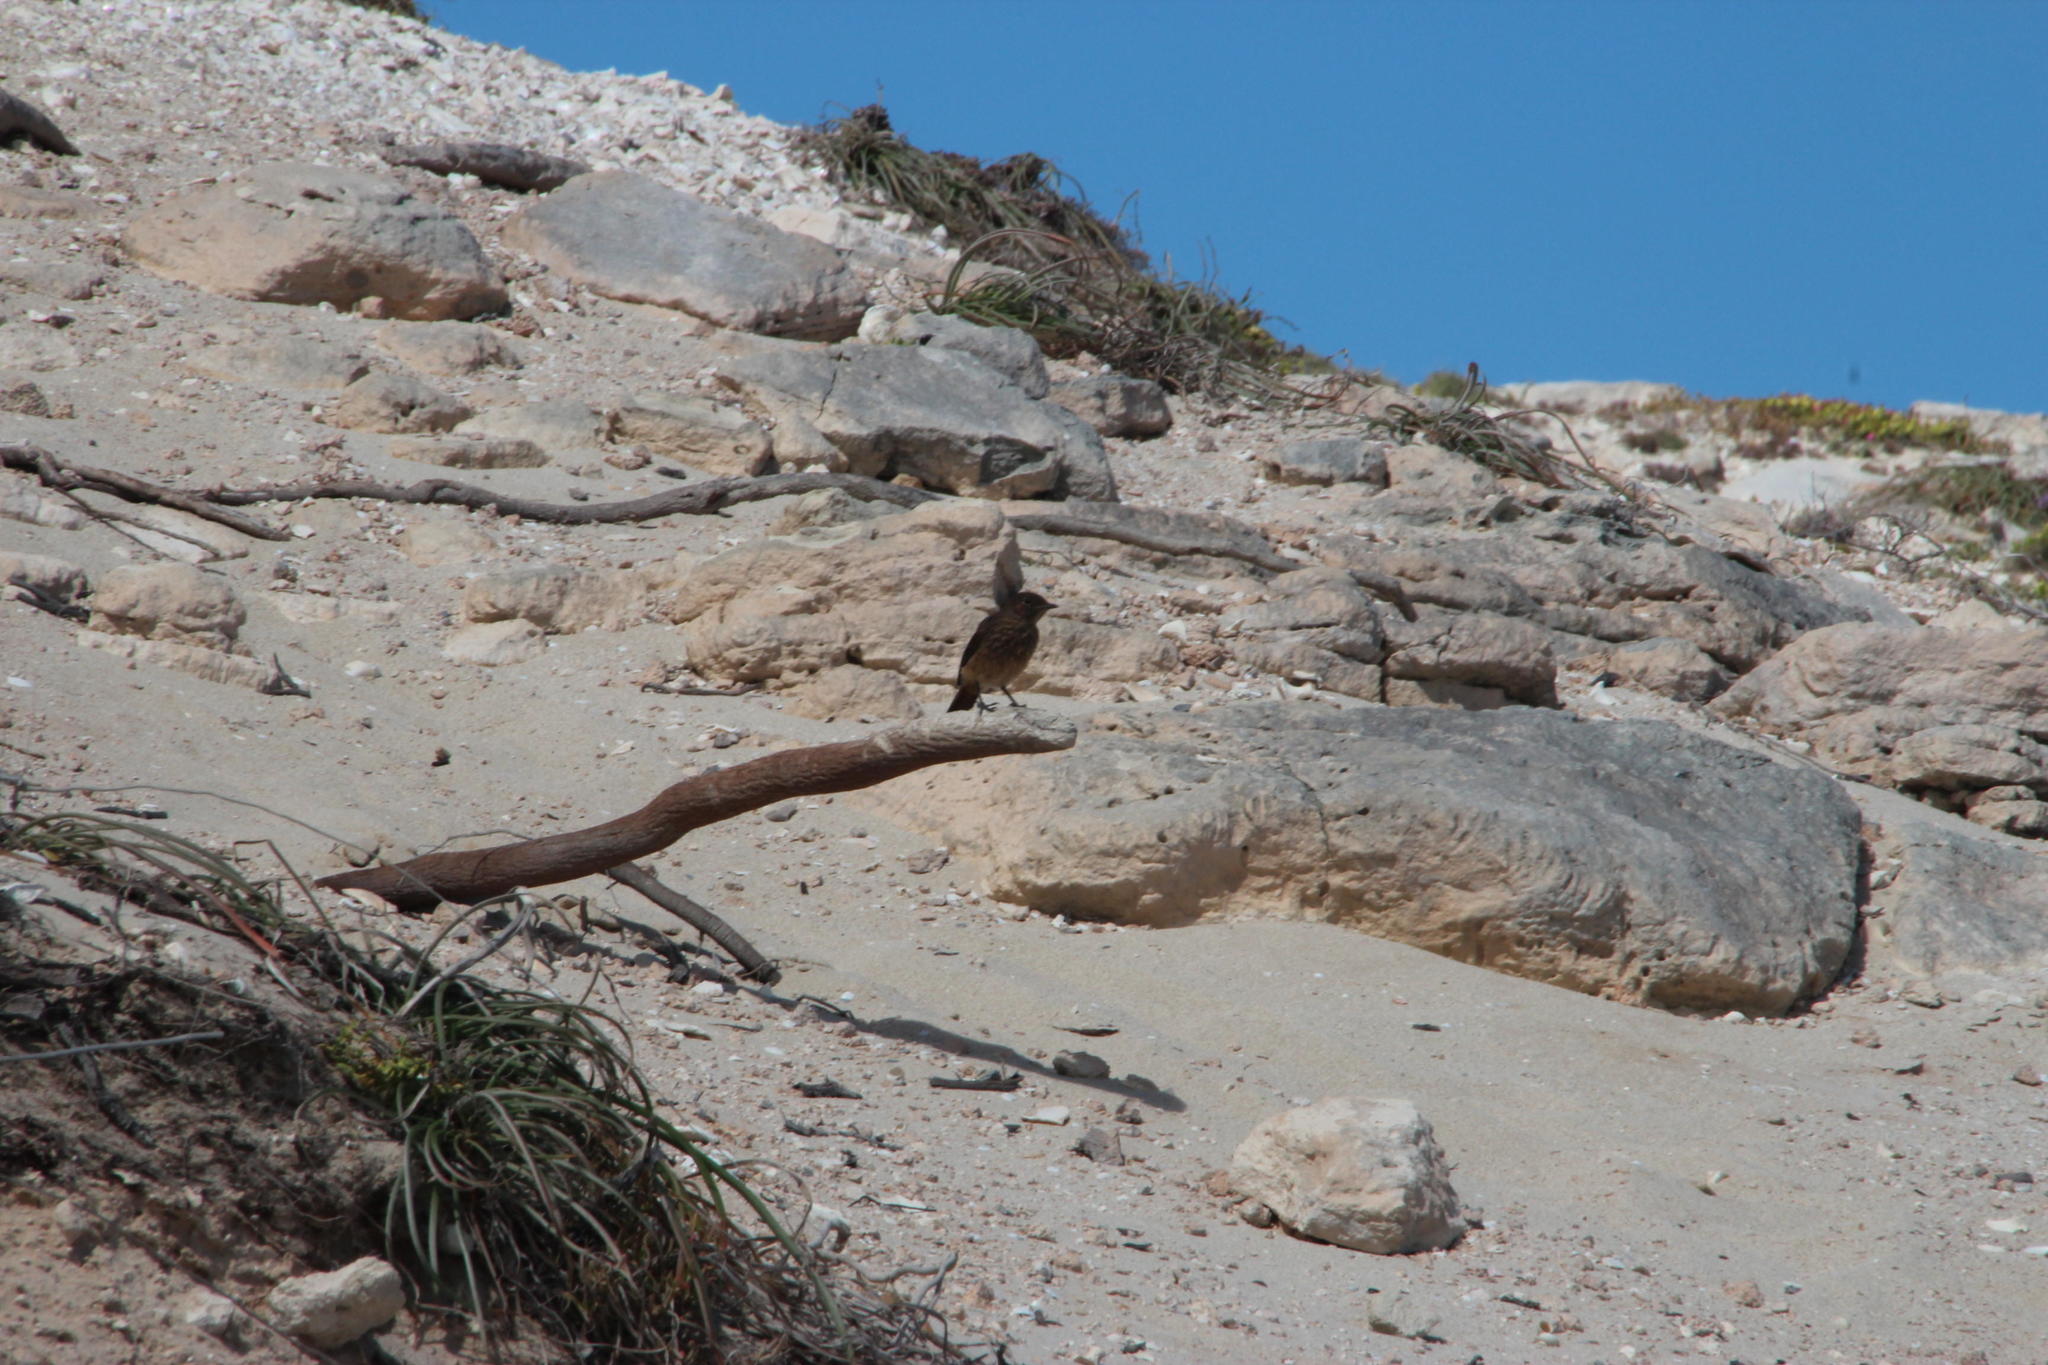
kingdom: Animalia
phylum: Chordata
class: Aves
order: Passeriformes
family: Muscicapidae
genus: Oenanthe
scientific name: Oenanthe familiaris
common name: Familiar chat
